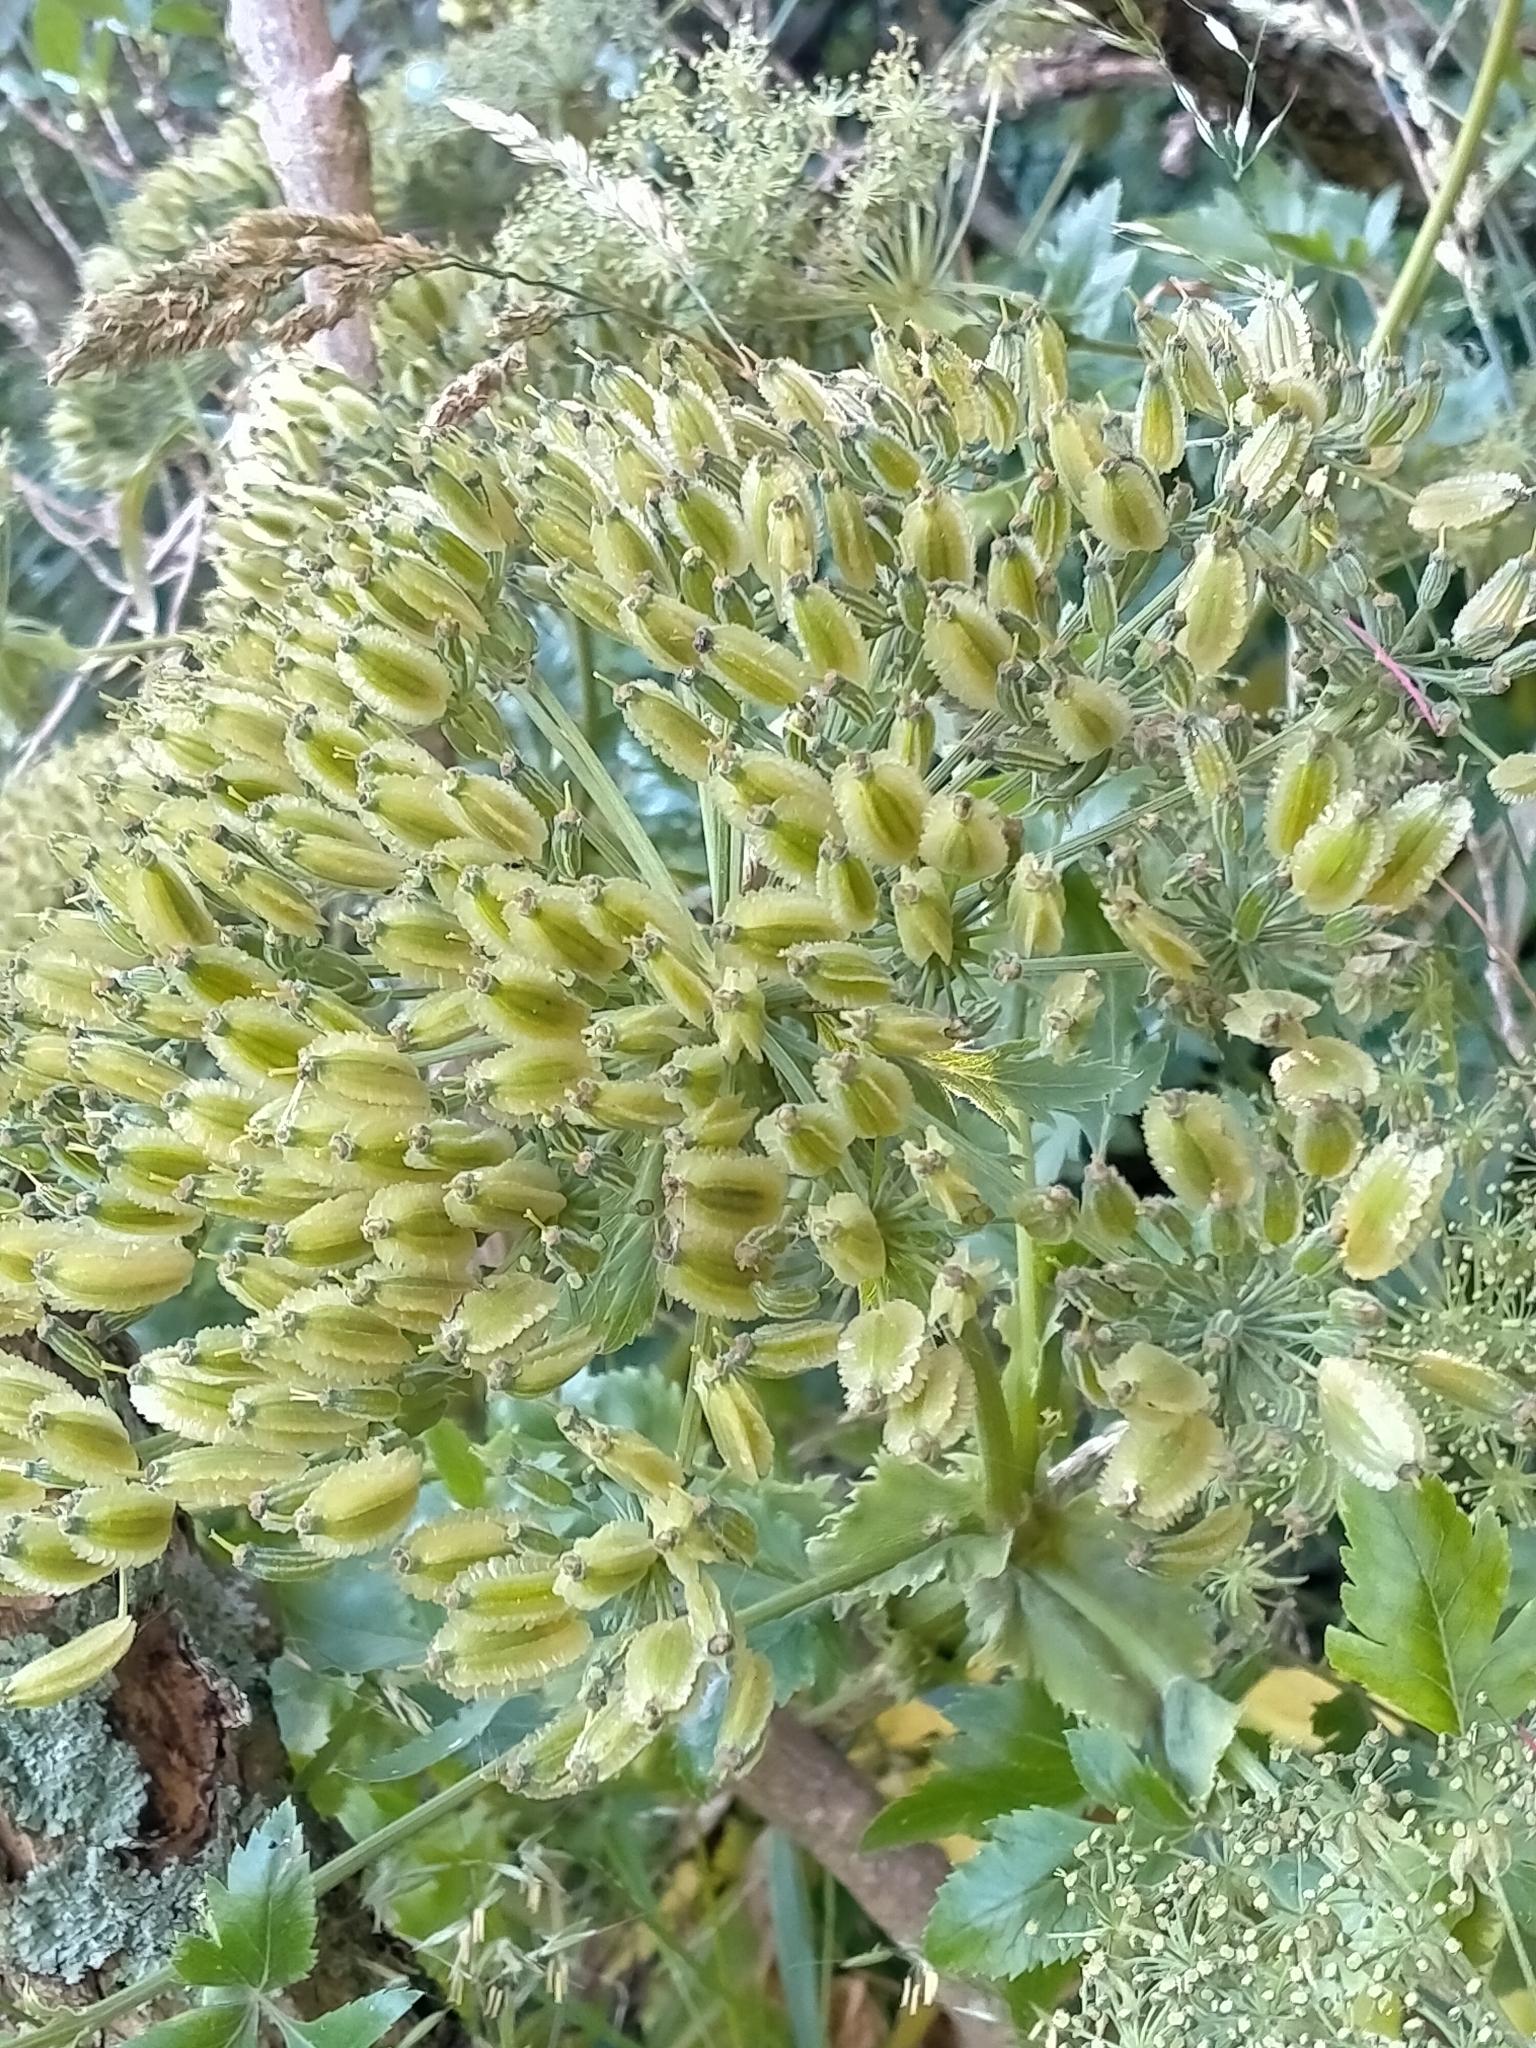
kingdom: Plantae
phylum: Tracheophyta
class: Magnoliopsida
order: Apiales
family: Apiaceae
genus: Daucus
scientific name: Daucus decipiens
